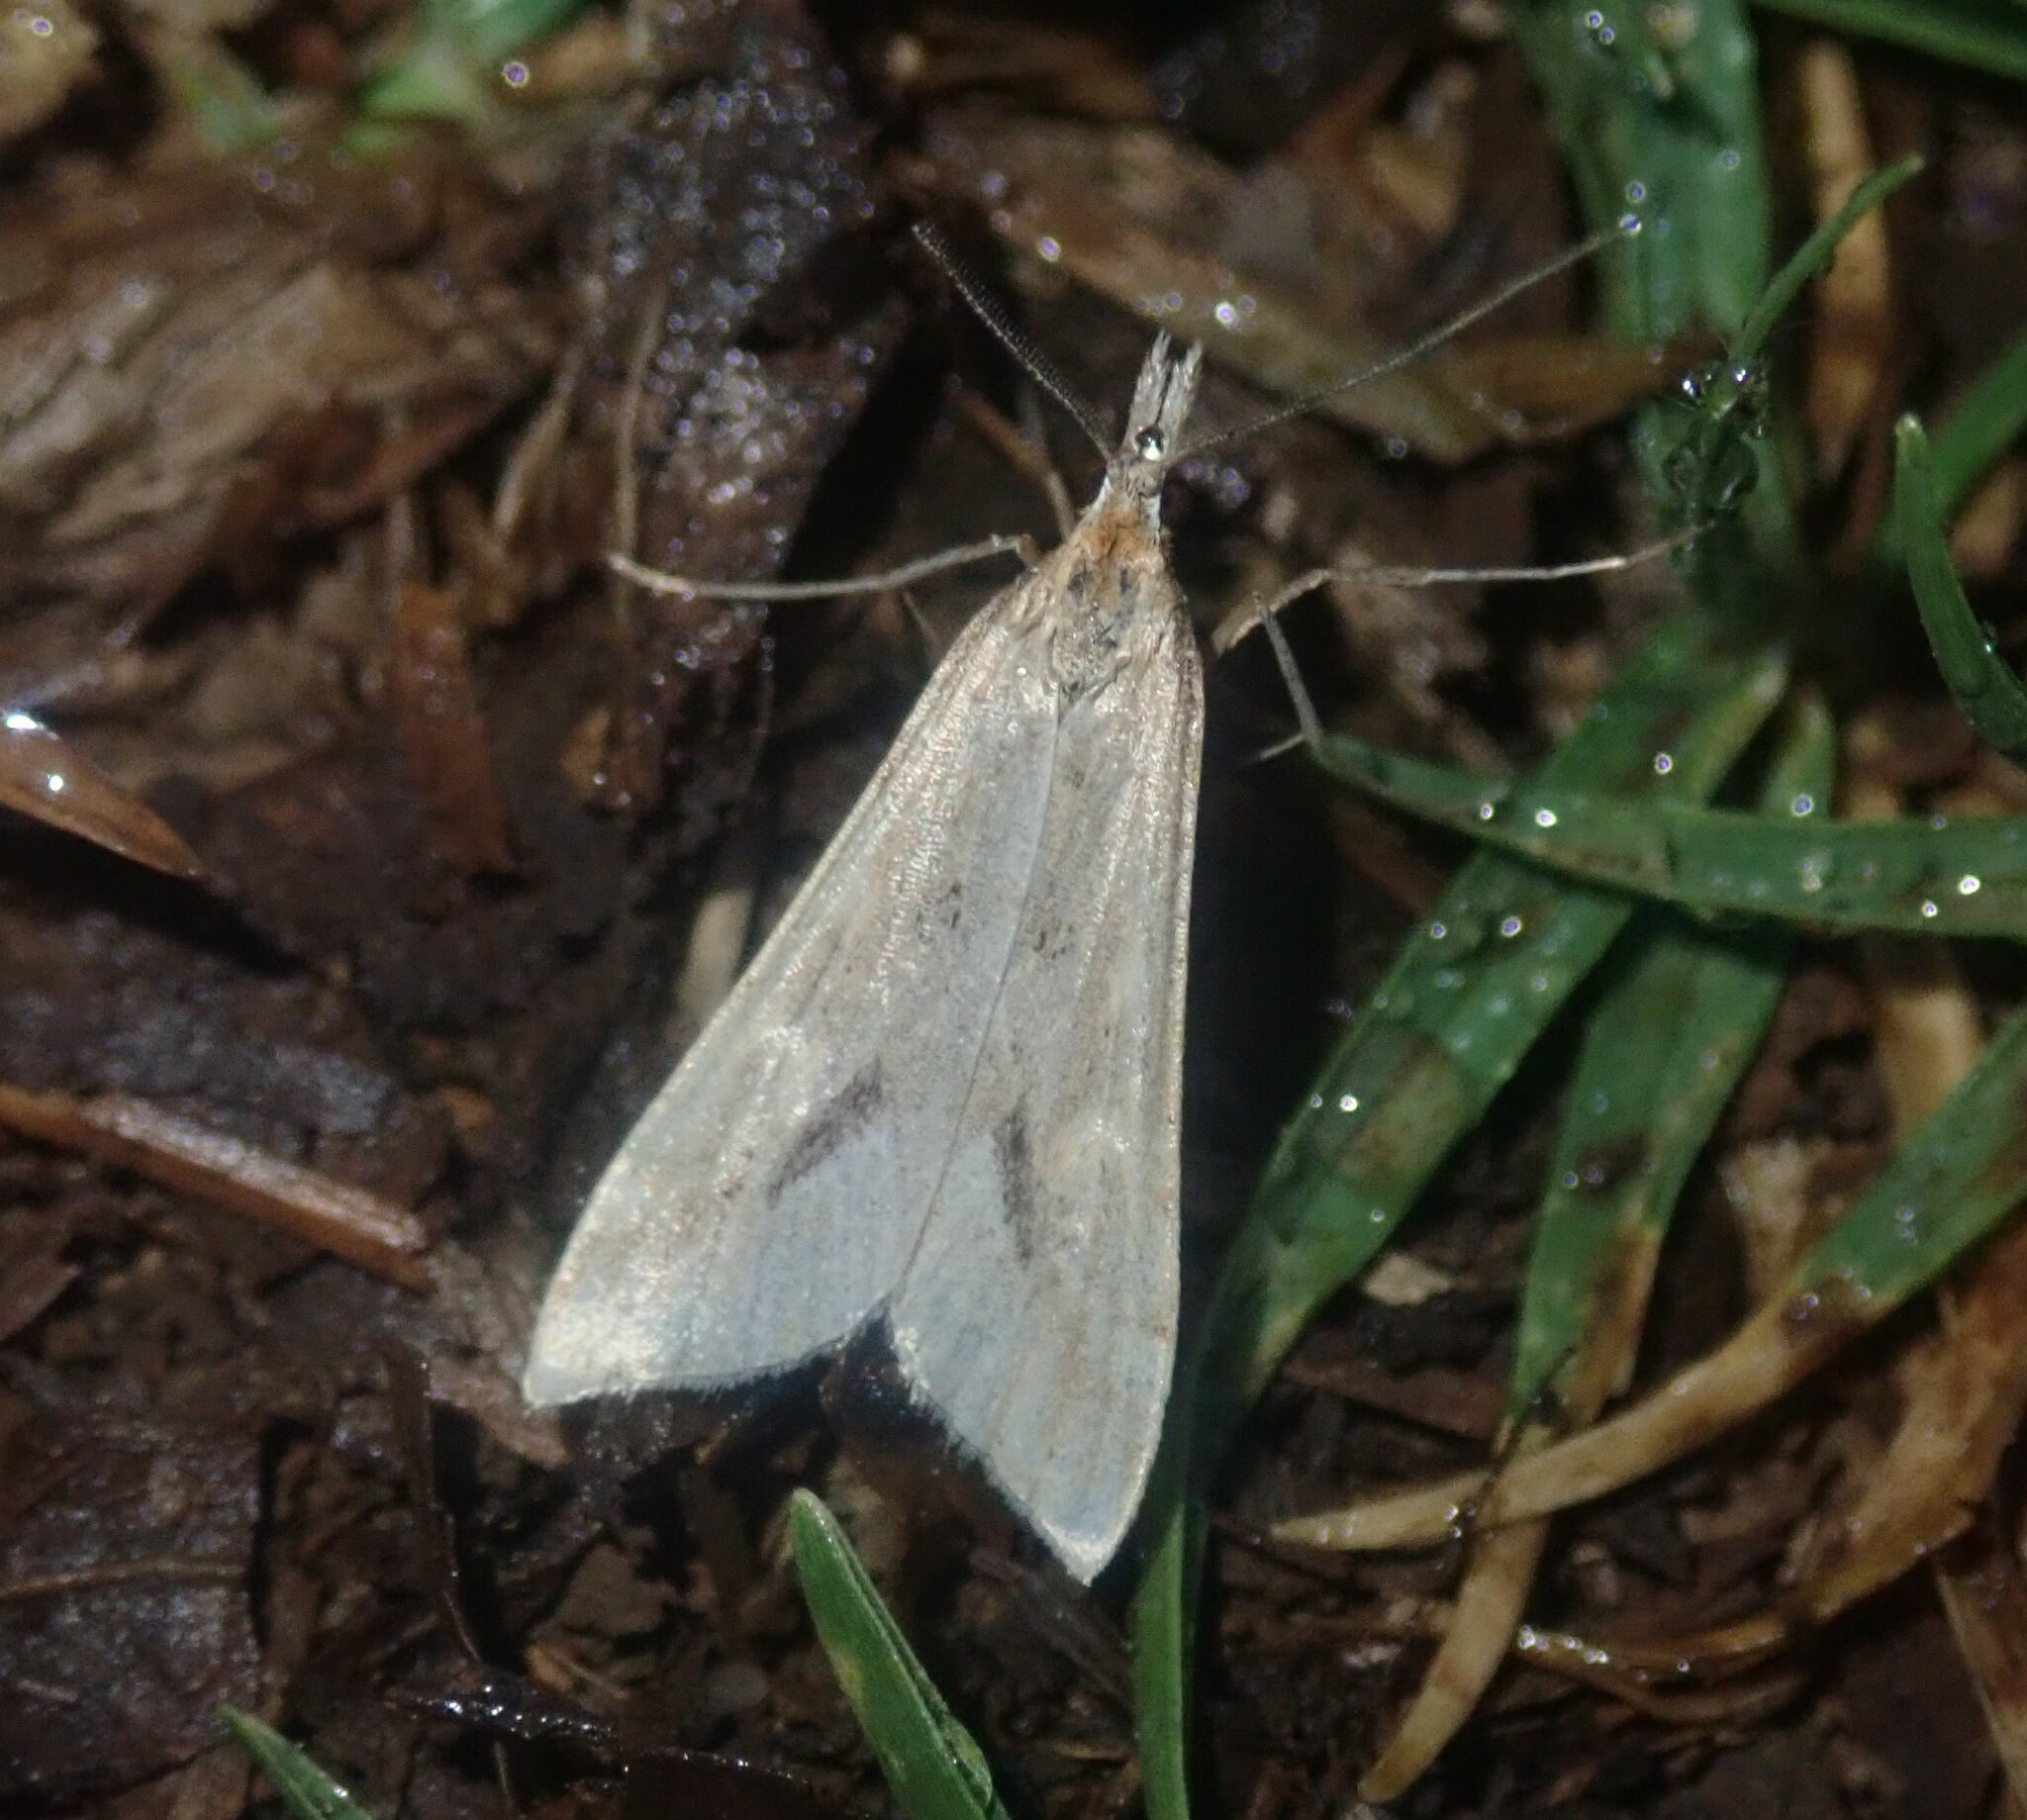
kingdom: Animalia
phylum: Arthropoda
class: Insecta
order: Lepidoptera
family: Crambidae
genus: Diasemia
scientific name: Diasemia monostigma
